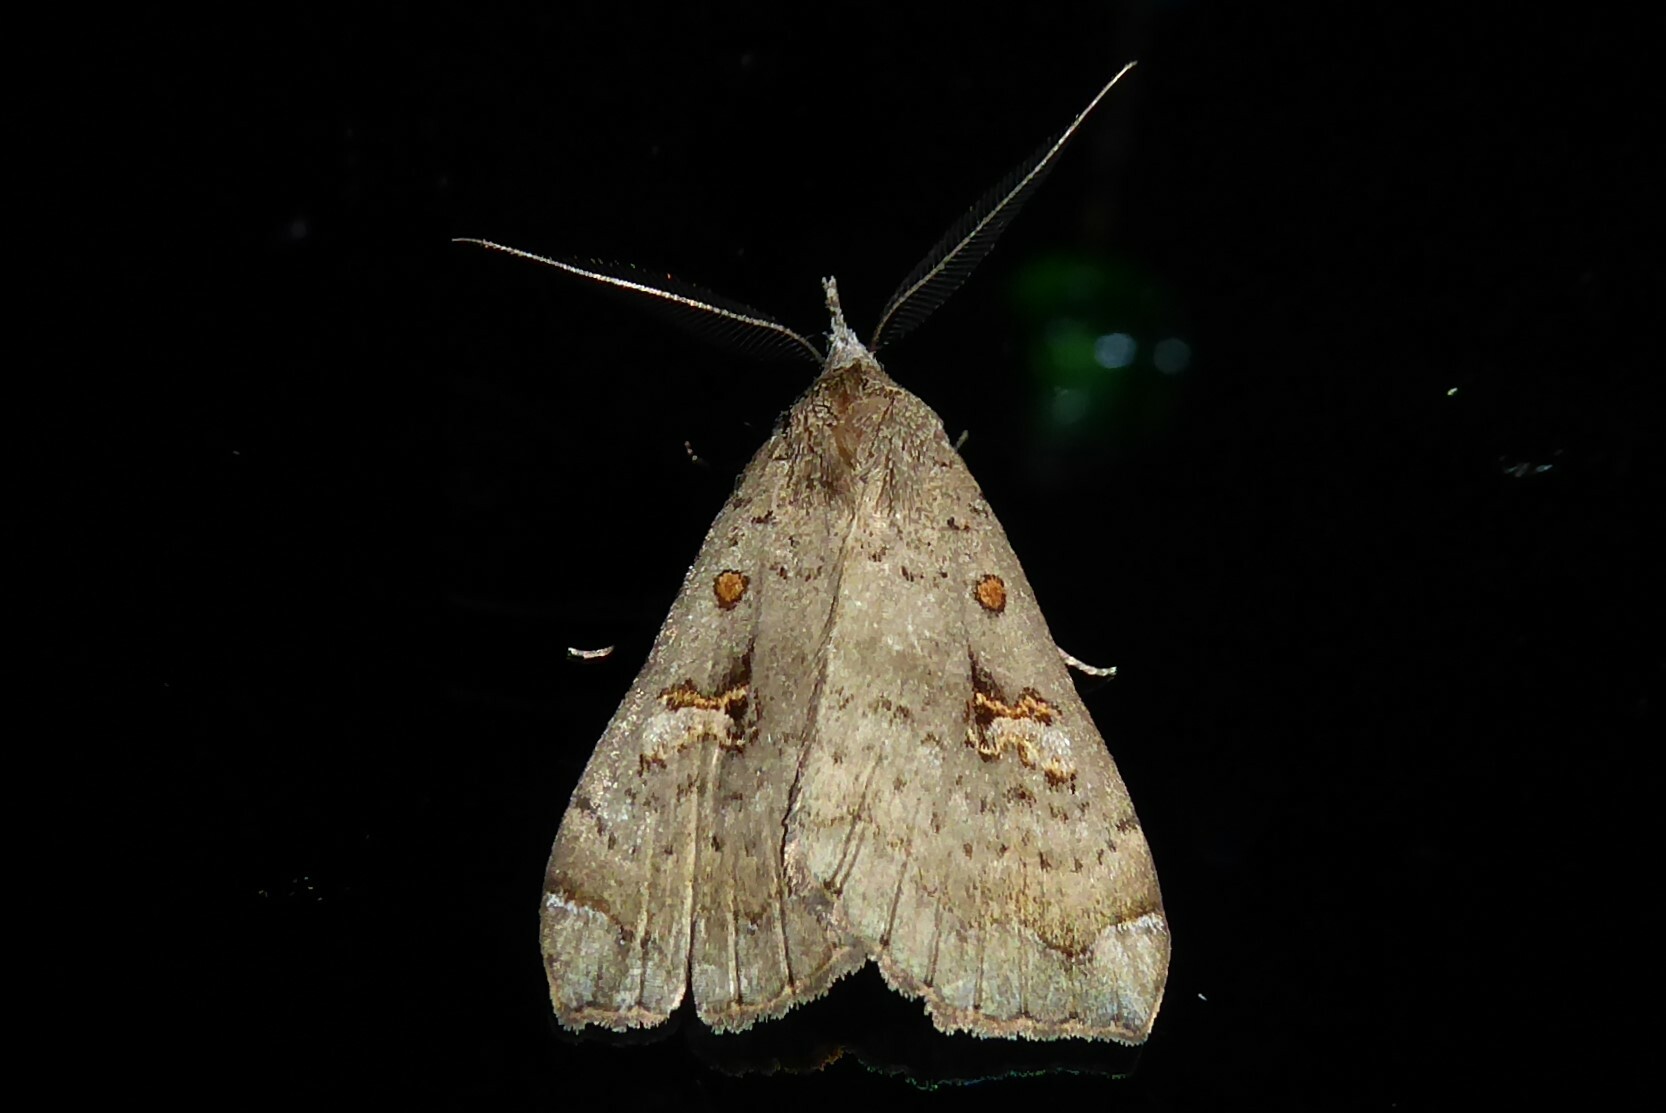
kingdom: Animalia
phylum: Arthropoda
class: Insecta
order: Lepidoptera
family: Erebidae
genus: Rhapsa
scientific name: Rhapsa scotosialis
